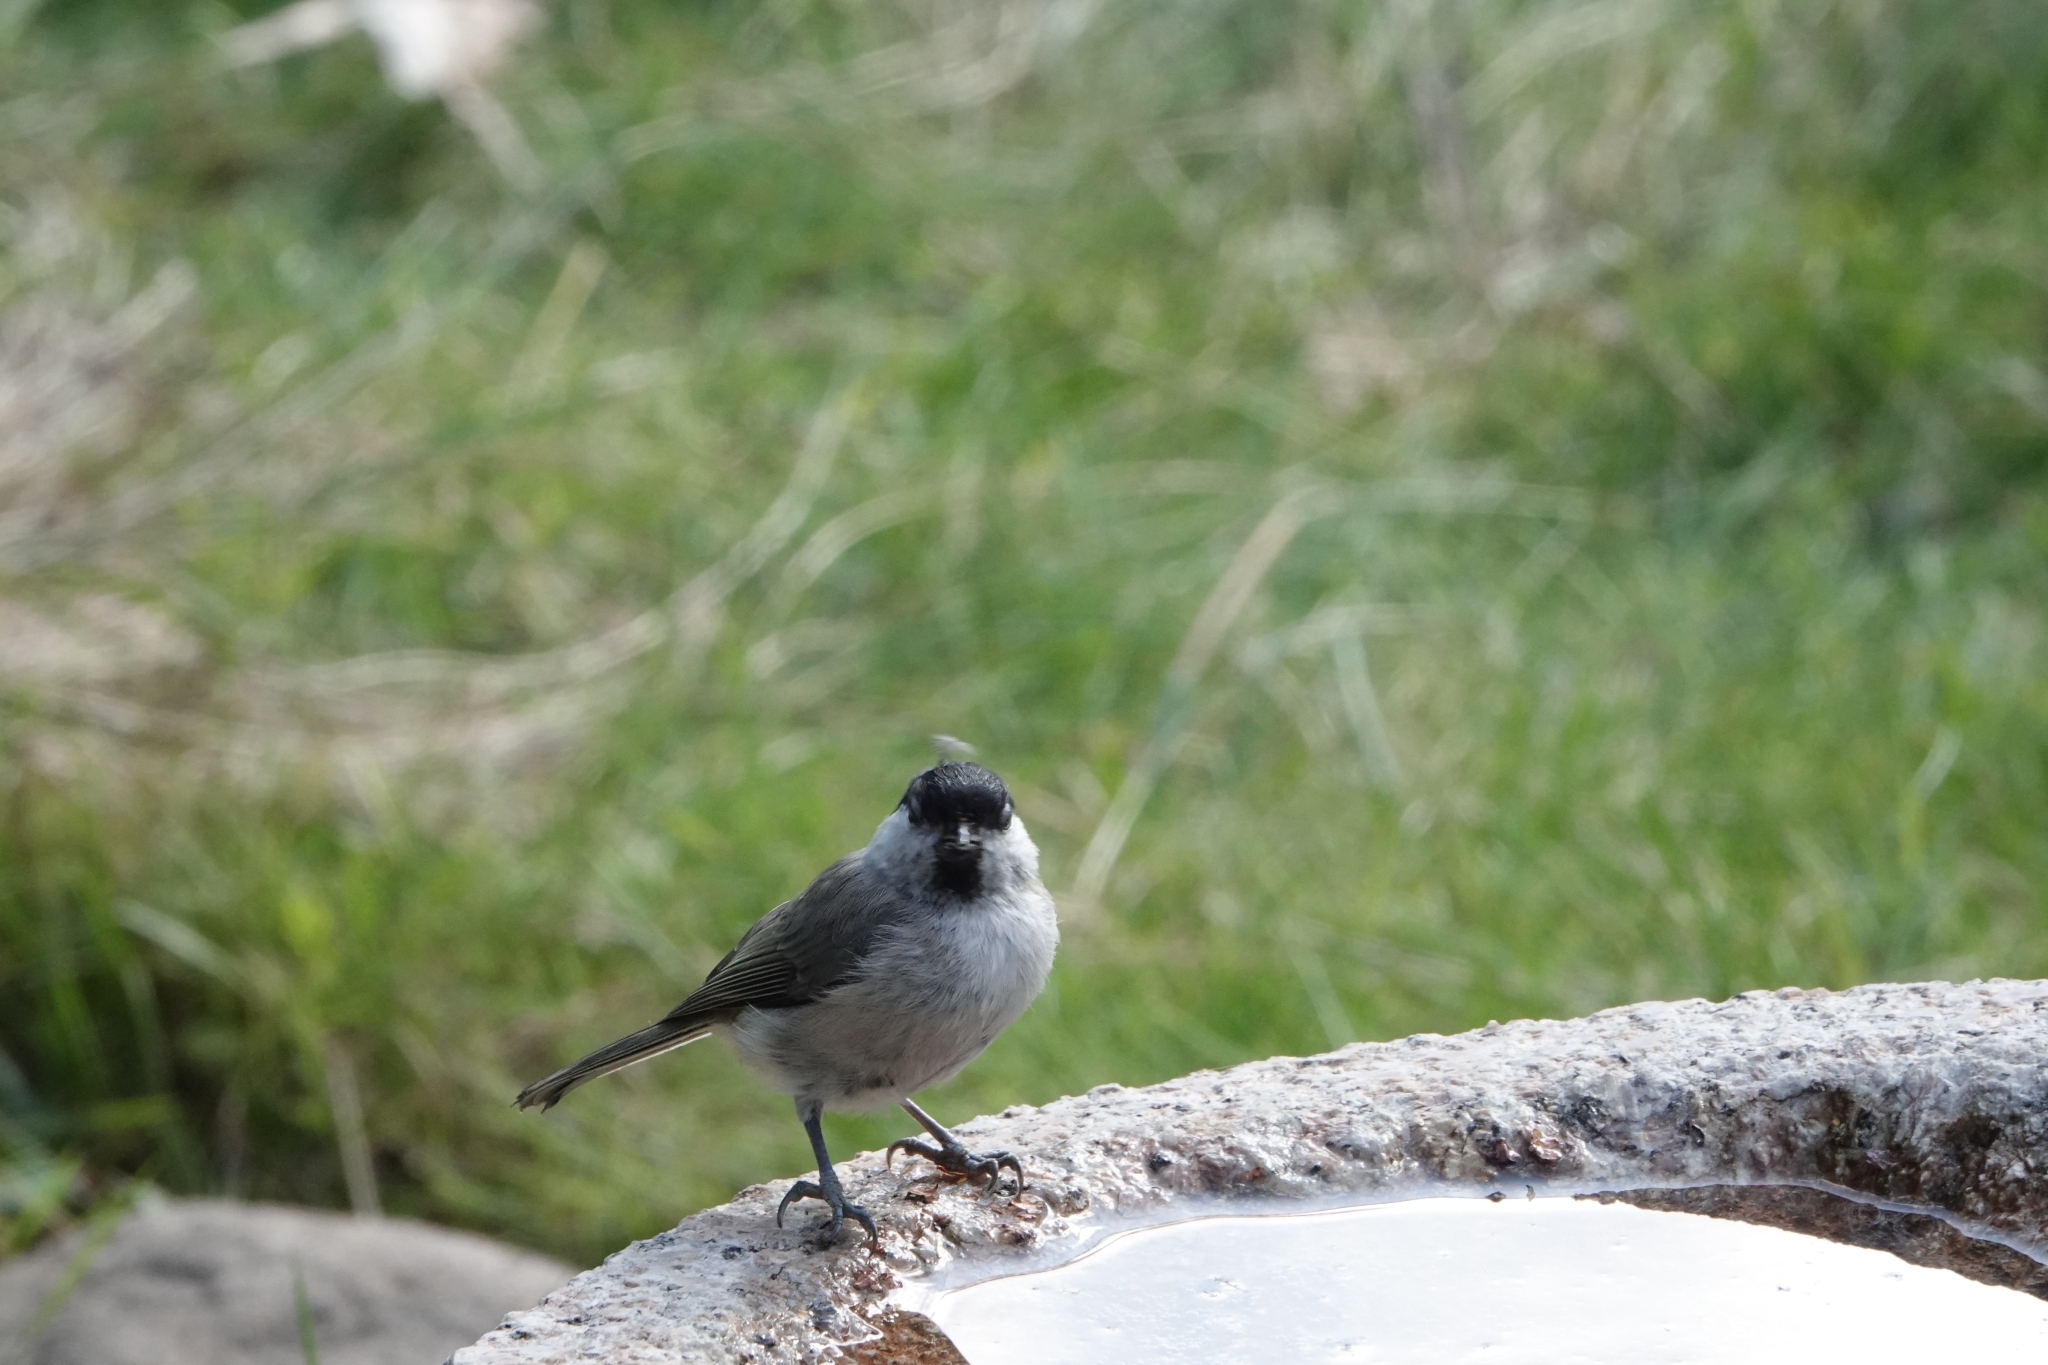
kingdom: Animalia
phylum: Chordata
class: Aves
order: Passeriformes
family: Paridae
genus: Poecile
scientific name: Poecile palustris
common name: Marsh tit
